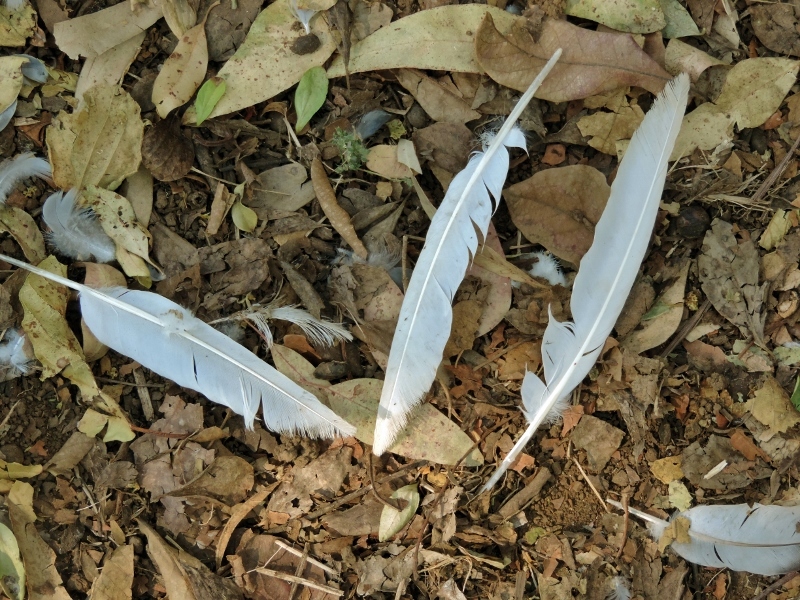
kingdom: Animalia
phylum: Chordata
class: Aves
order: Pelecaniformes
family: Ardeidae
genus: Bubulcus
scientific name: Bubulcus ibis
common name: Cattle egret
